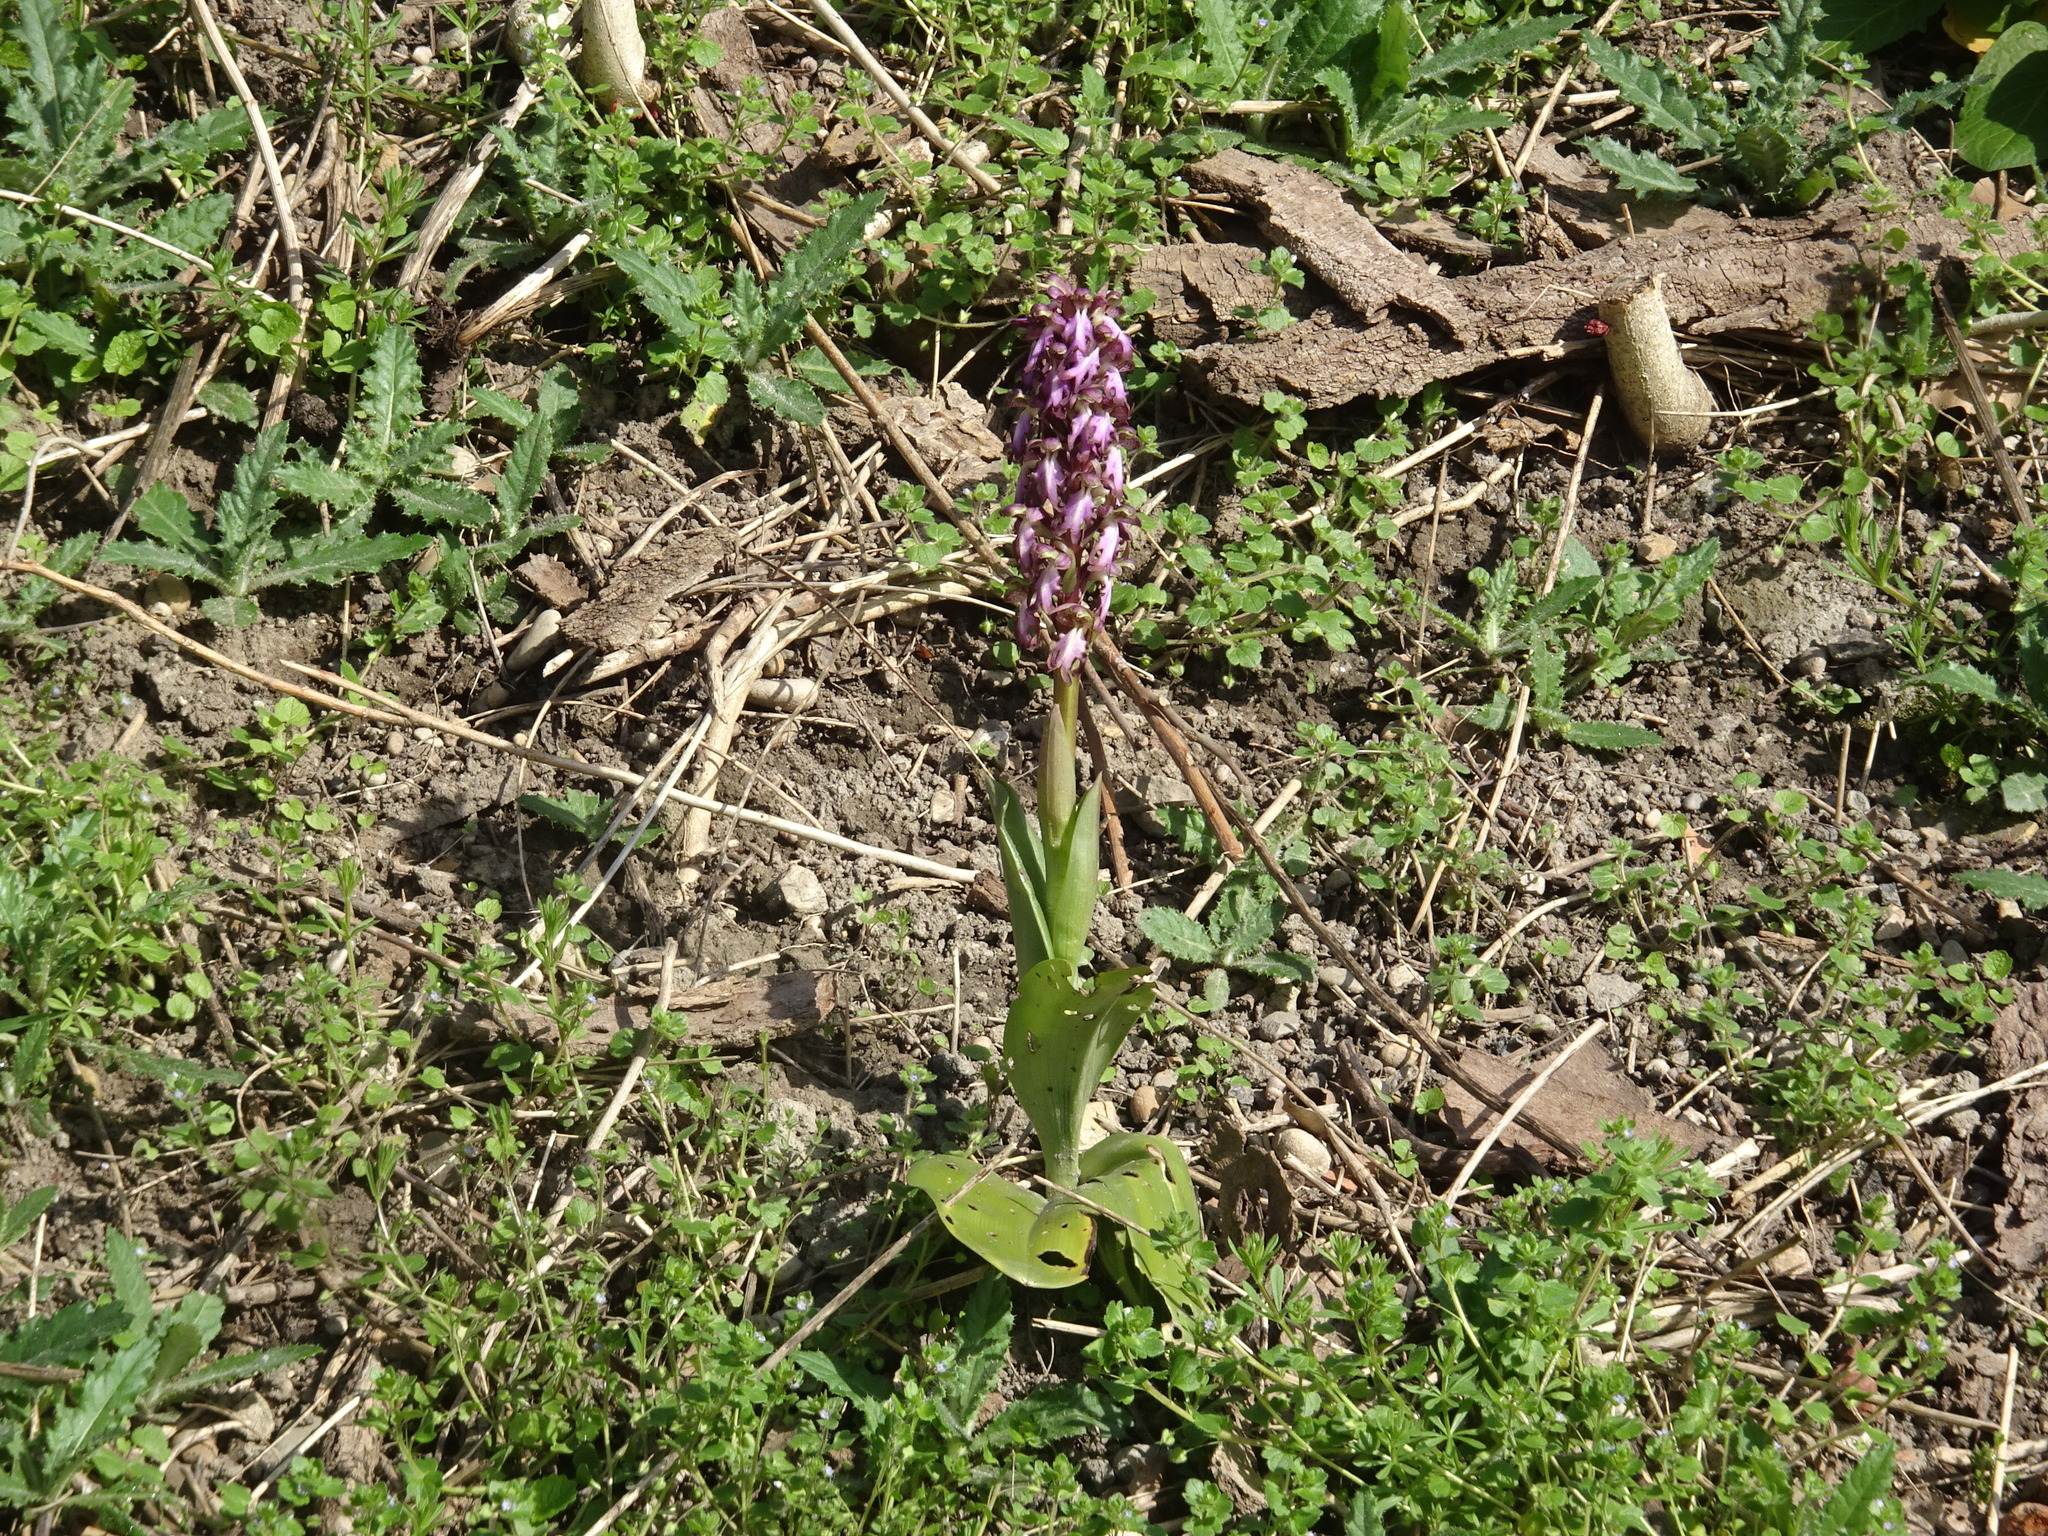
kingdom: Plantae
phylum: Tracheophyta
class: Liliopsida
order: Asparagales
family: Orchidaceae
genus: Himantoglossum
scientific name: Himantoglossum robertianum
